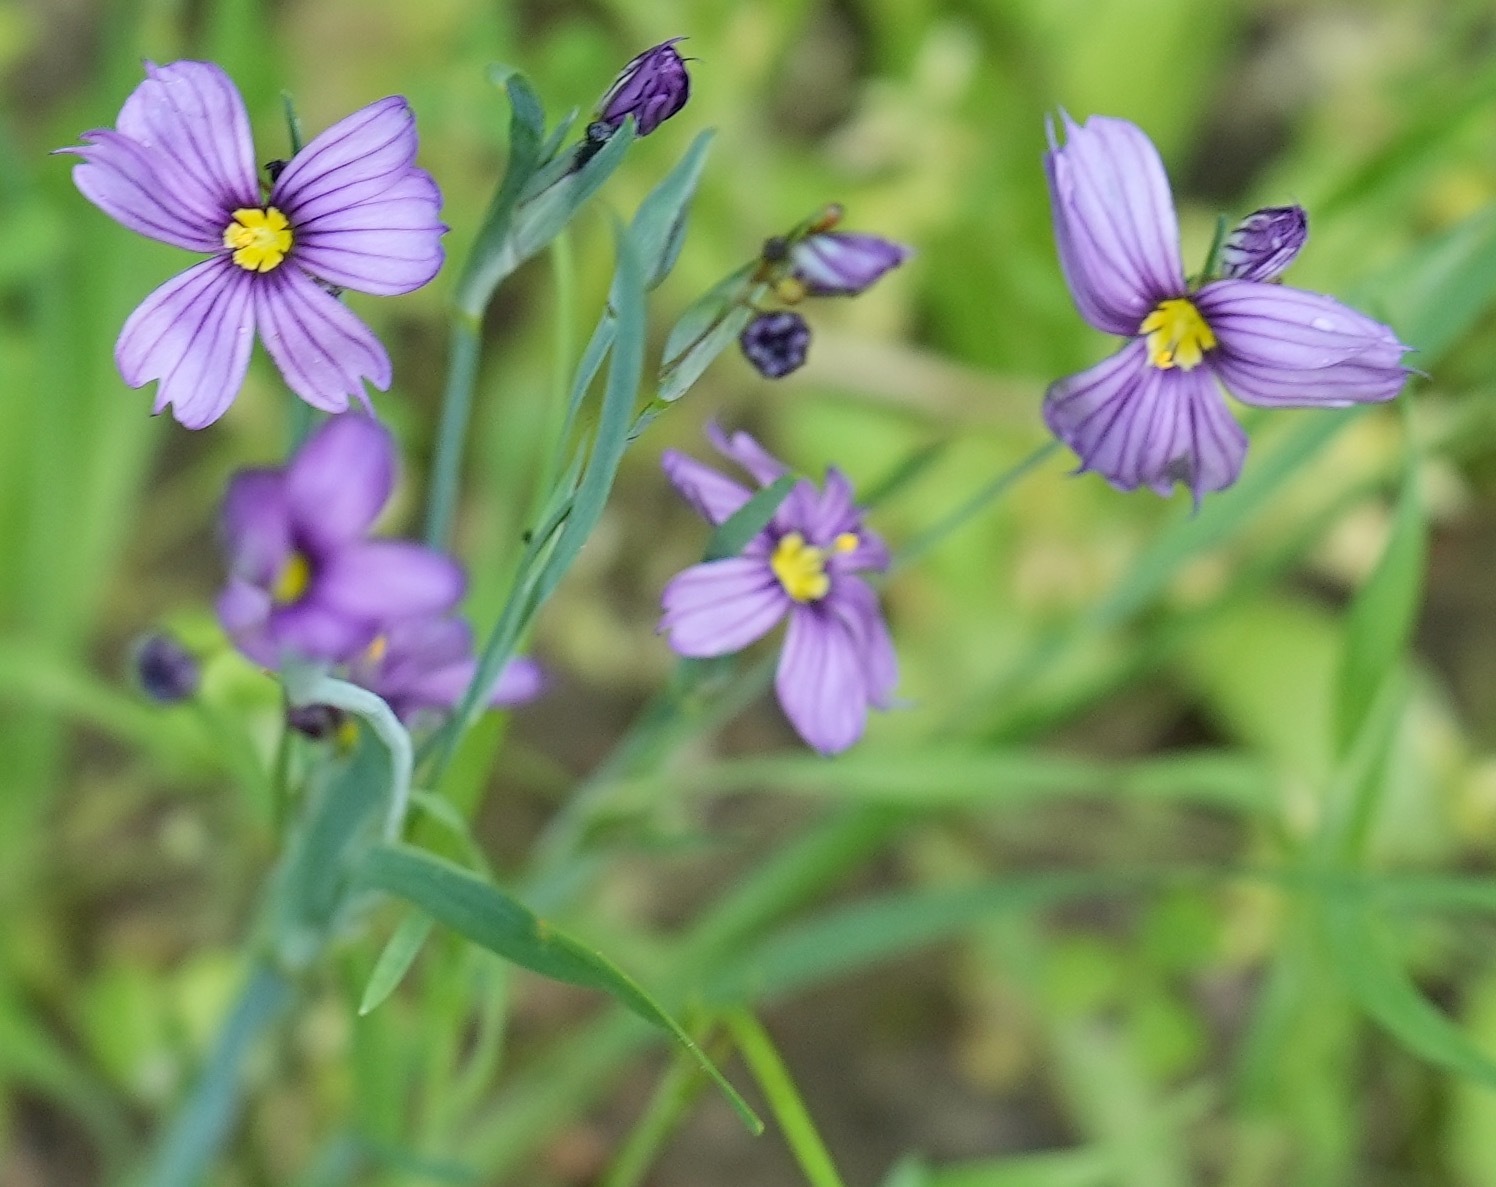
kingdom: Plantae
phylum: Tracheophyta
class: Liliopsida
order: Asparagales
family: Iridaceae
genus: Sisyrinchium
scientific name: Sisyrinchium bellum
